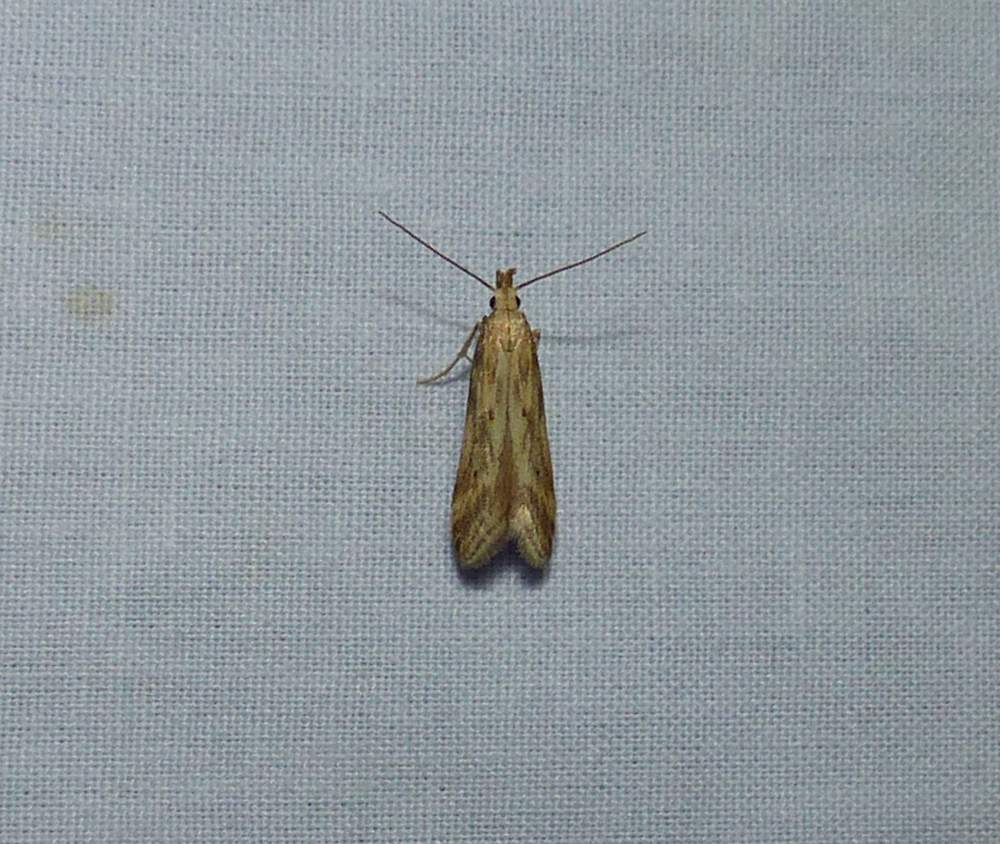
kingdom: Animalia
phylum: Arthropoda
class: Insecta
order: Lepidoptera
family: Gelechiidae
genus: Metzneria
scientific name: Metzneria lappella
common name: Burdock neb
